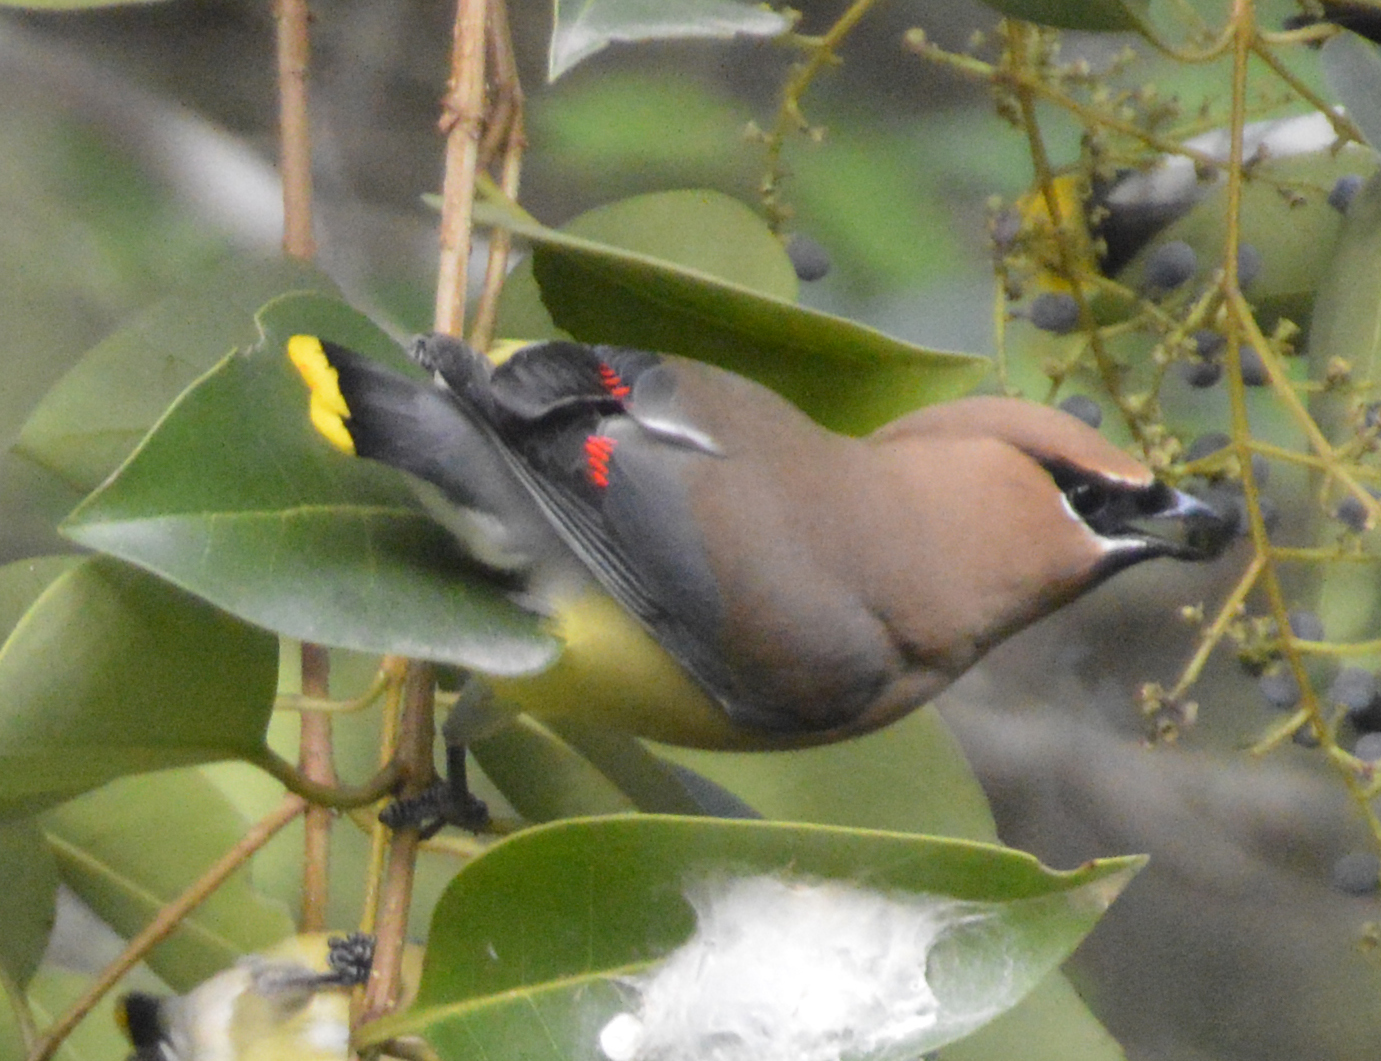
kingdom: Animalia
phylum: Chordata
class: Aves
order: Passeriformes
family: Bombycillidae
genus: Bombycilla
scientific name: Bombycilla cedrorum
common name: Cedar waxwing
